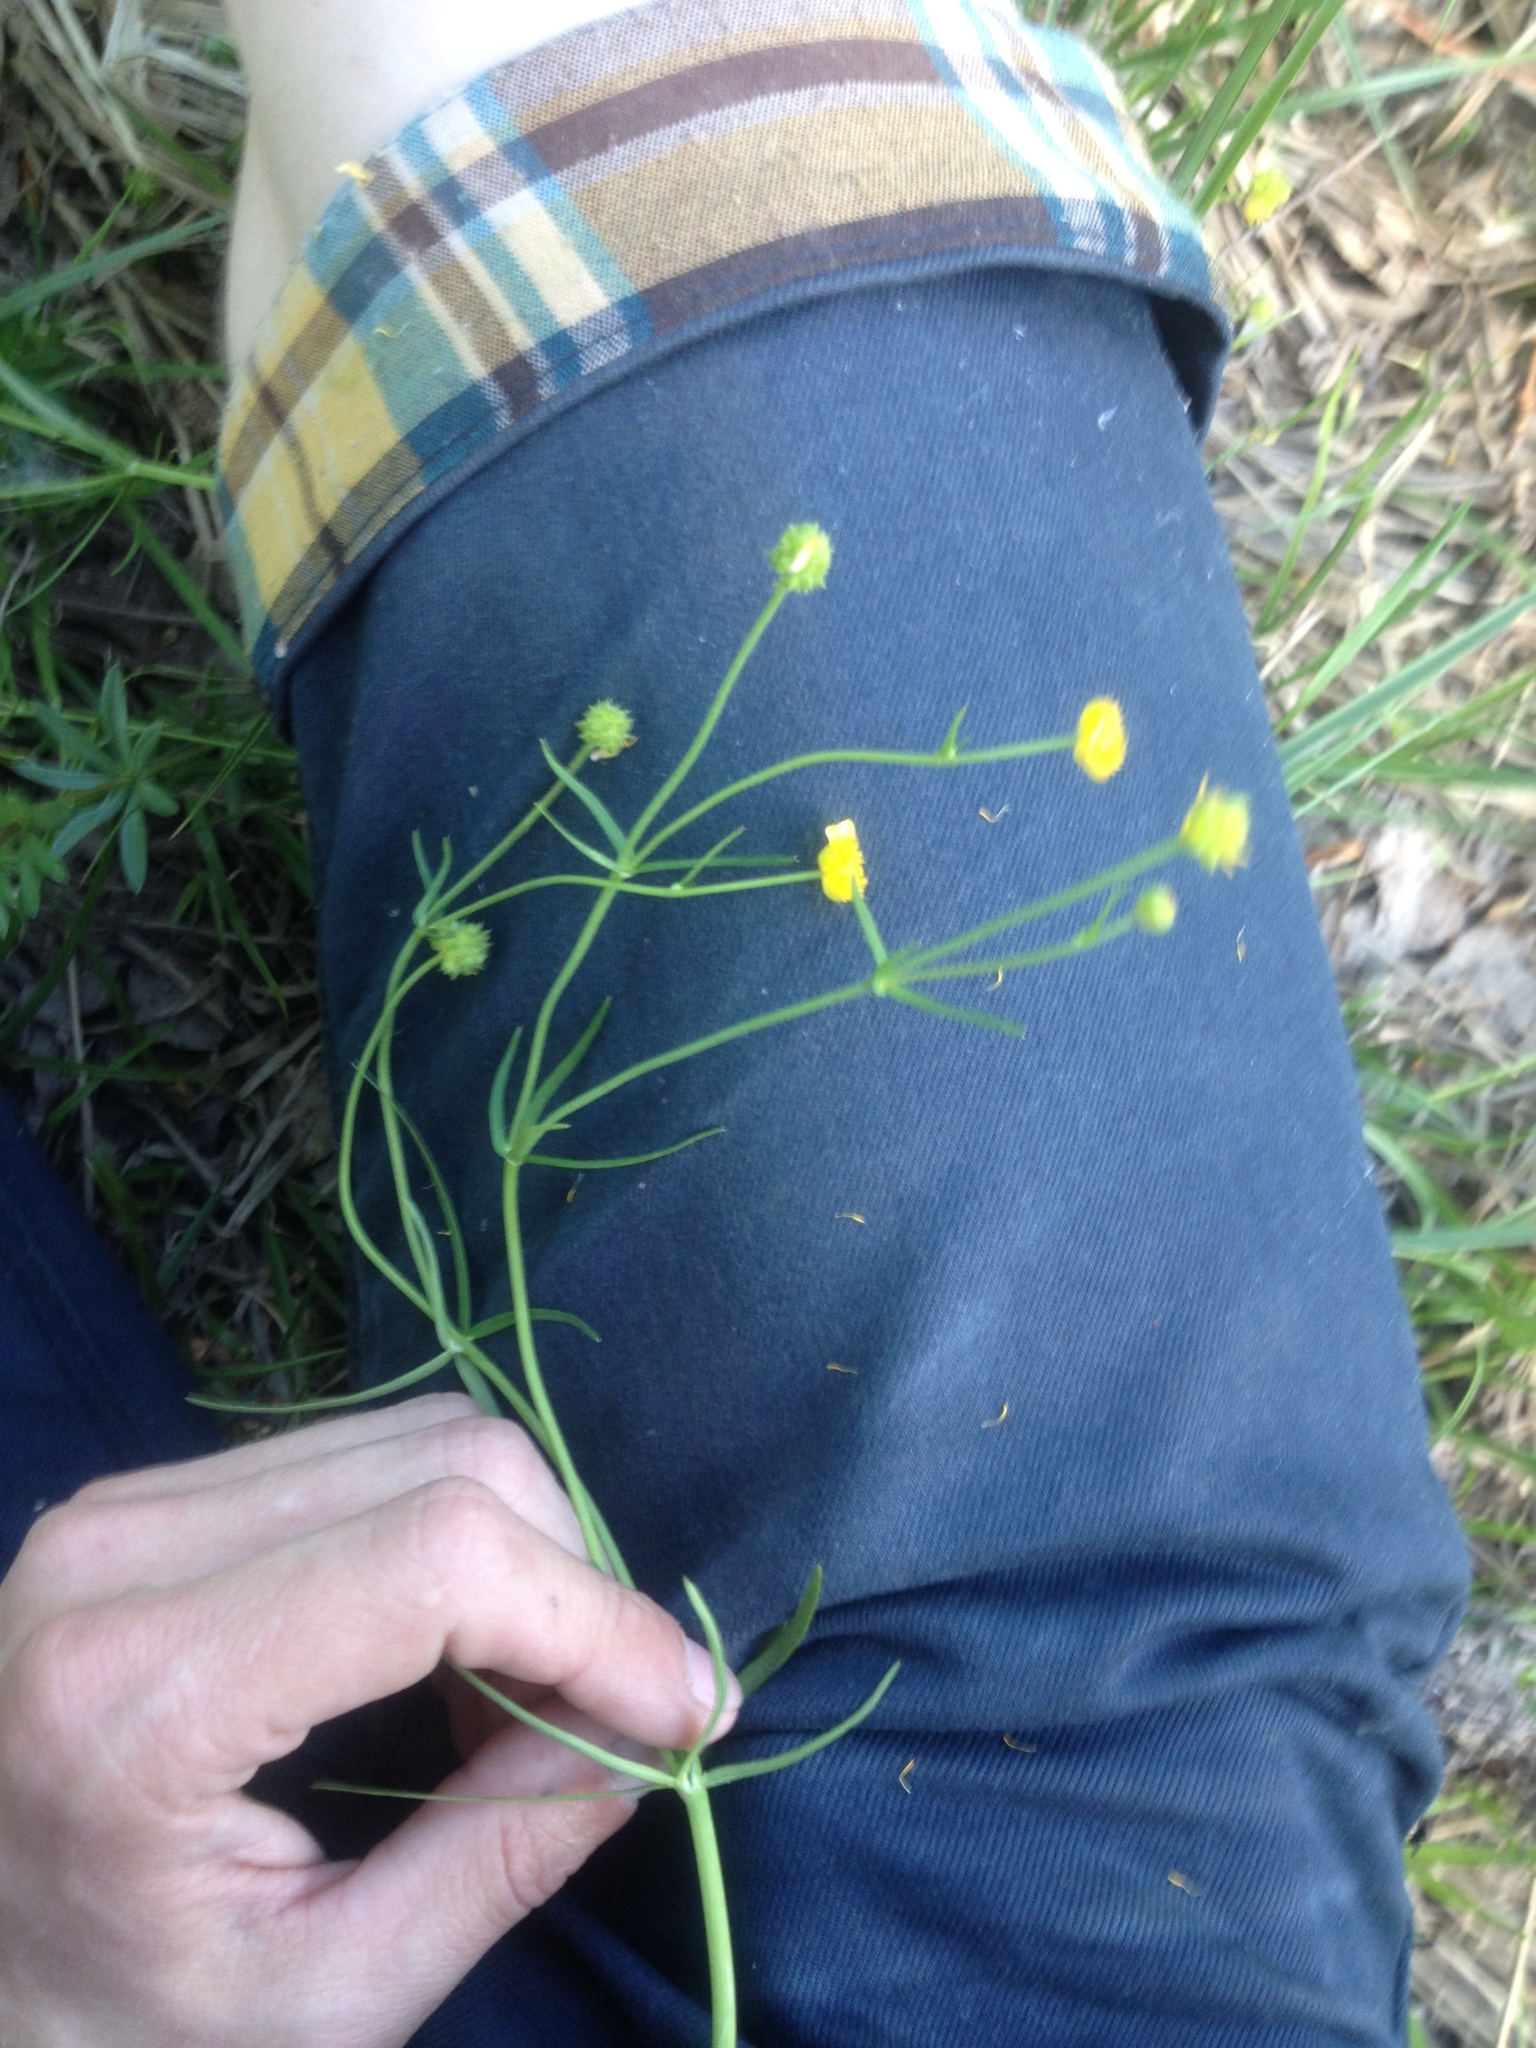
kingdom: Plantae
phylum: Tracheophyta
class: Magnoliopsida
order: Ranunculales
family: Ranunculaceae
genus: Ranunculus
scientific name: Ranunculus auricomus
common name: Goldilocks buttercup
